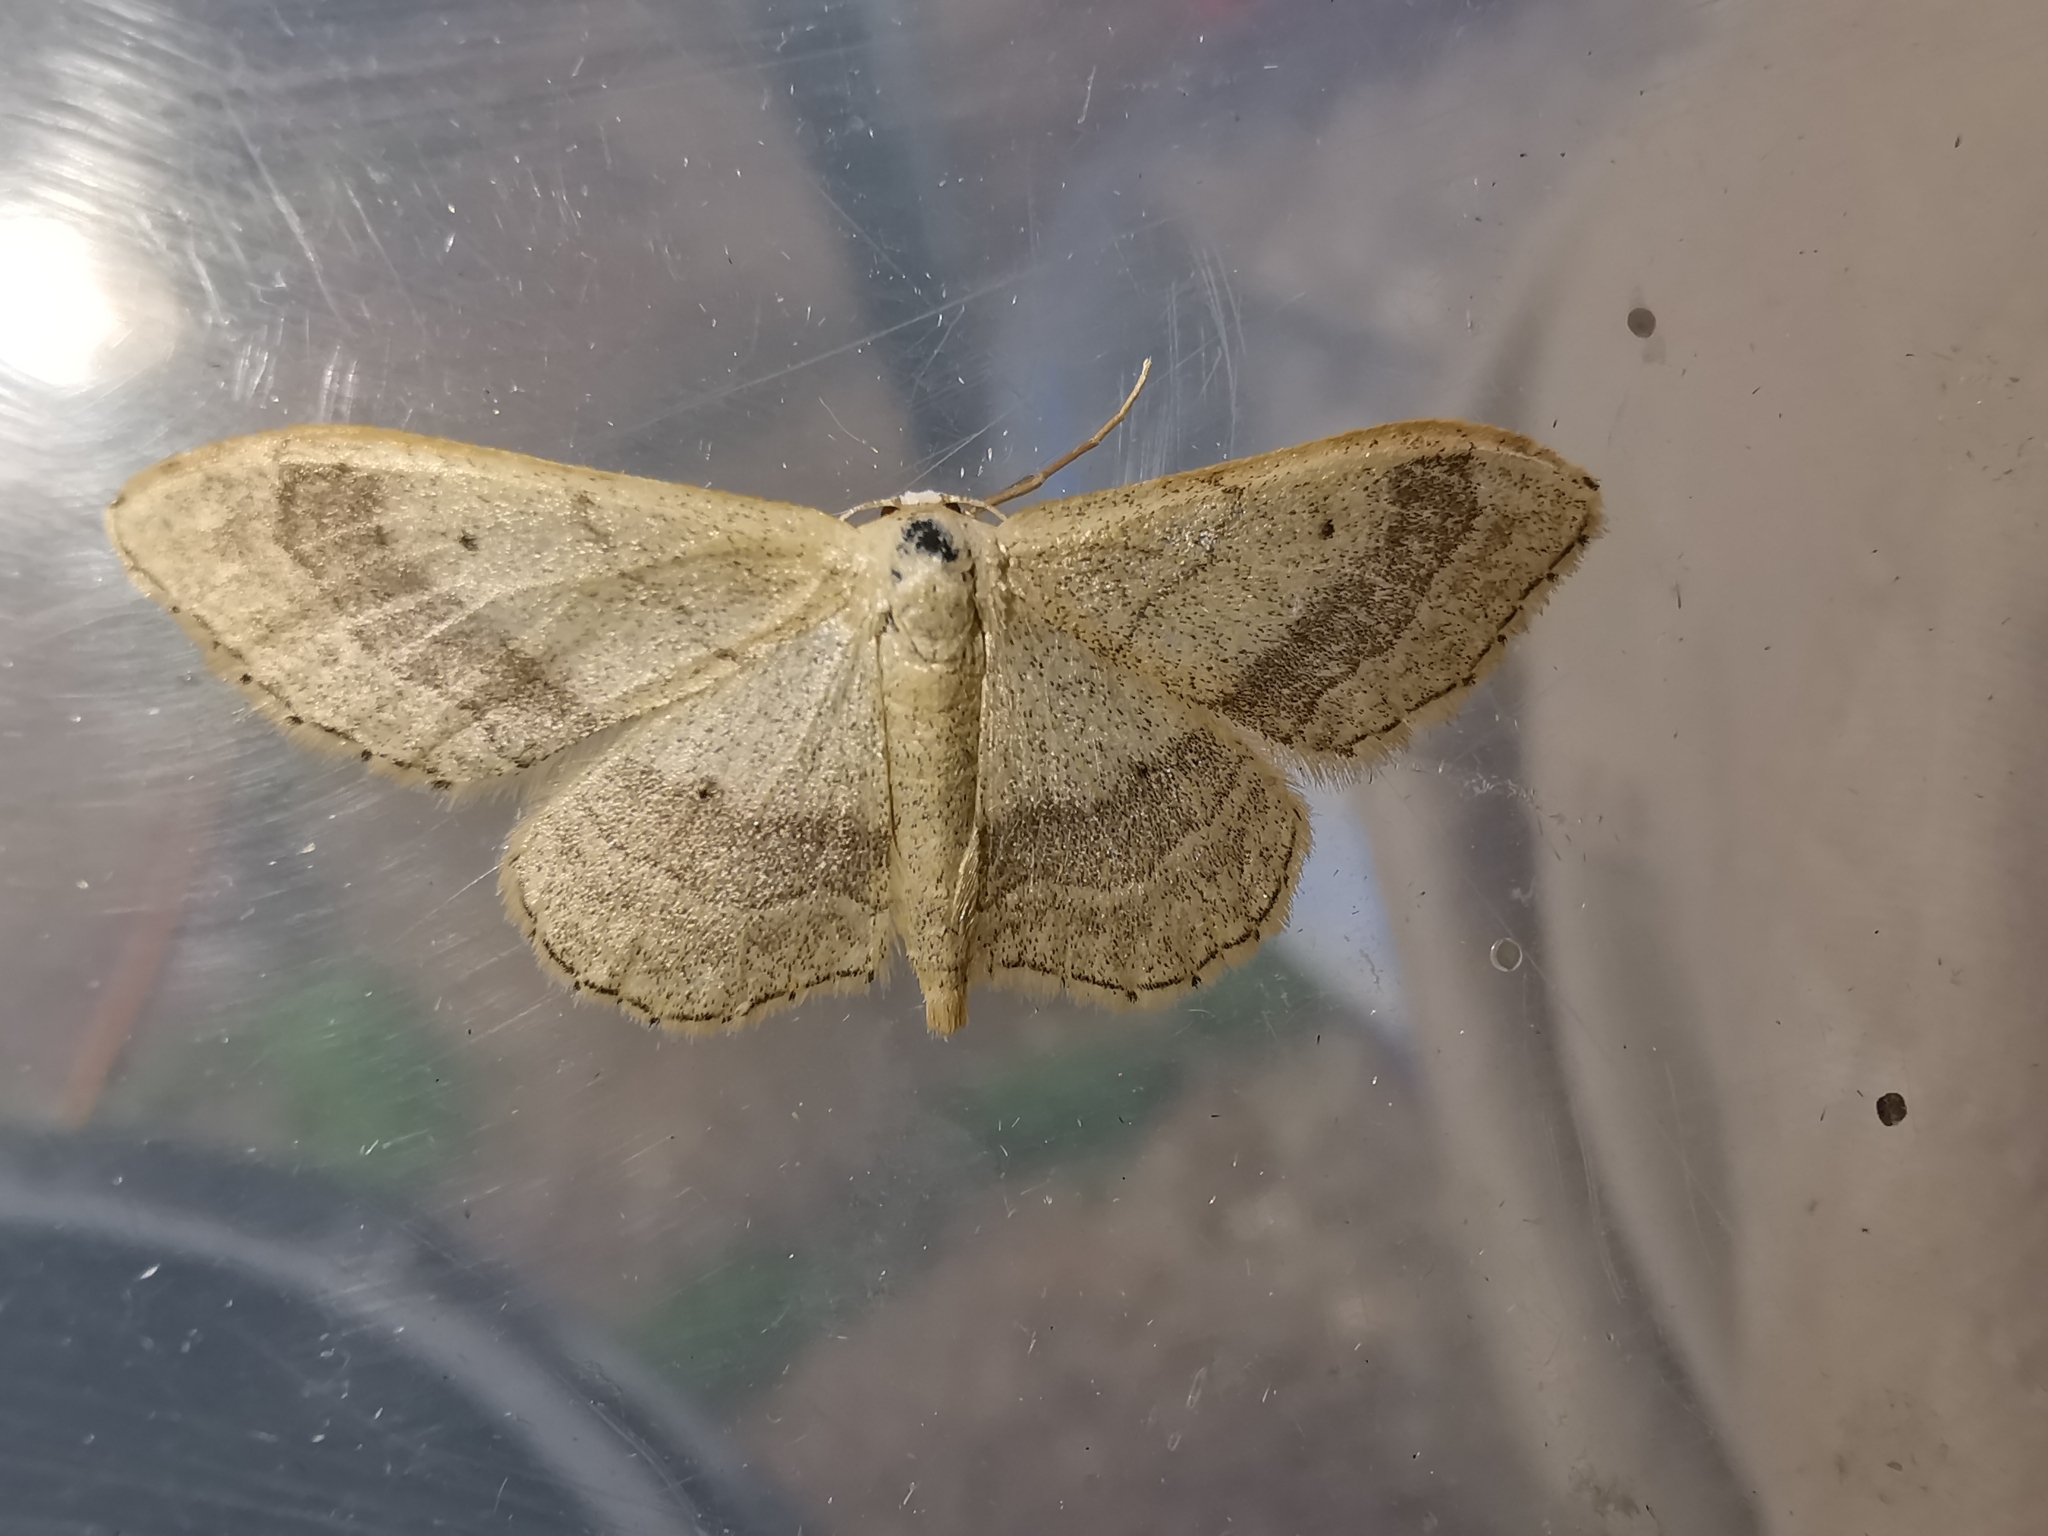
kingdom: Animalia
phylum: Arthropoda
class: Insecta
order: Lepidoptera
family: Geometridae
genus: Idaea
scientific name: Idaea aversata
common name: Riband wave
